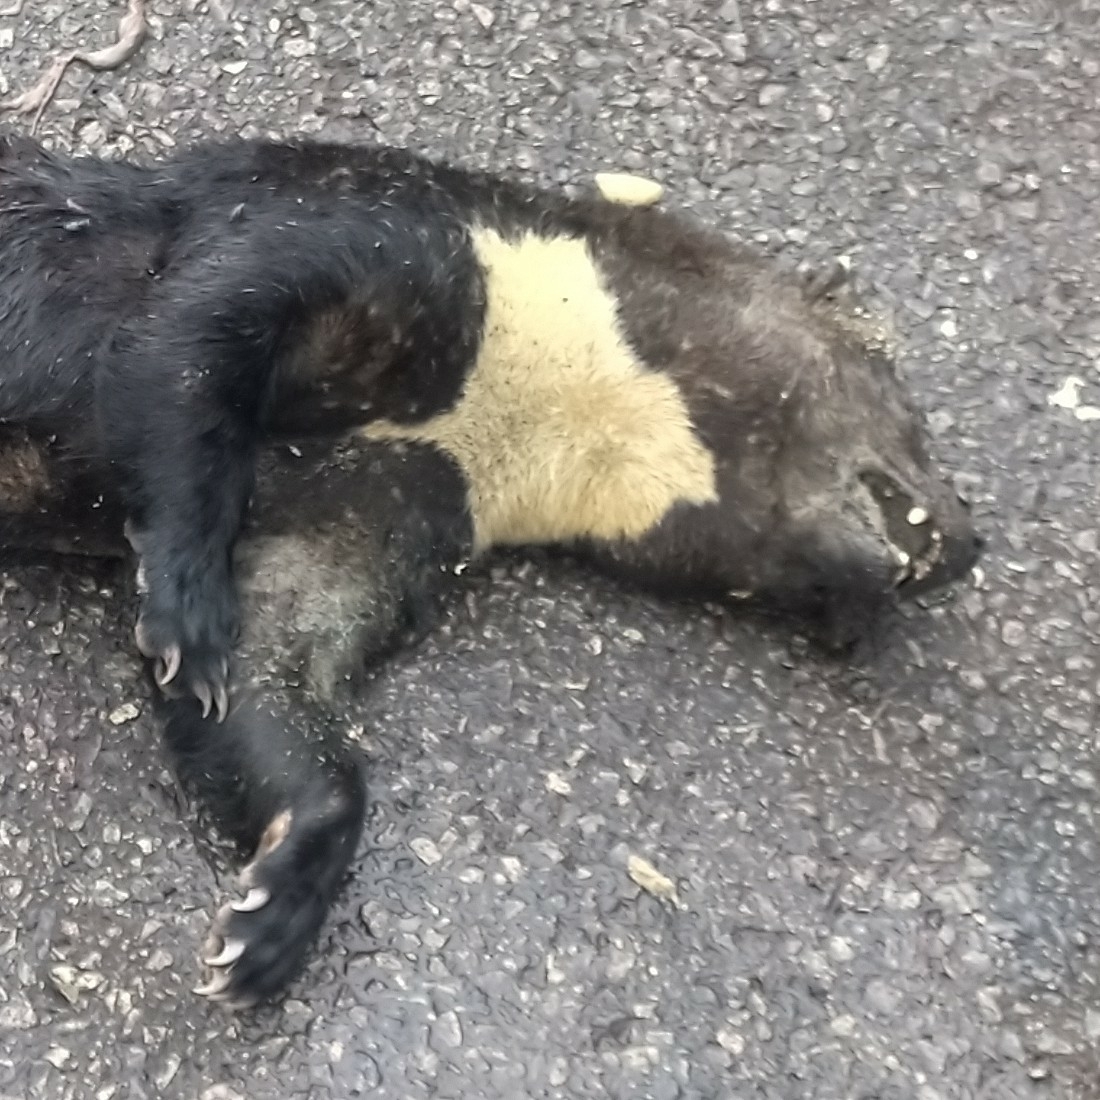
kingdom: Animalia
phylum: Chordata
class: Mammalia
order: Carnivora
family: Mustelidae
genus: Eira
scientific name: Eira barbara
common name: Tayra
